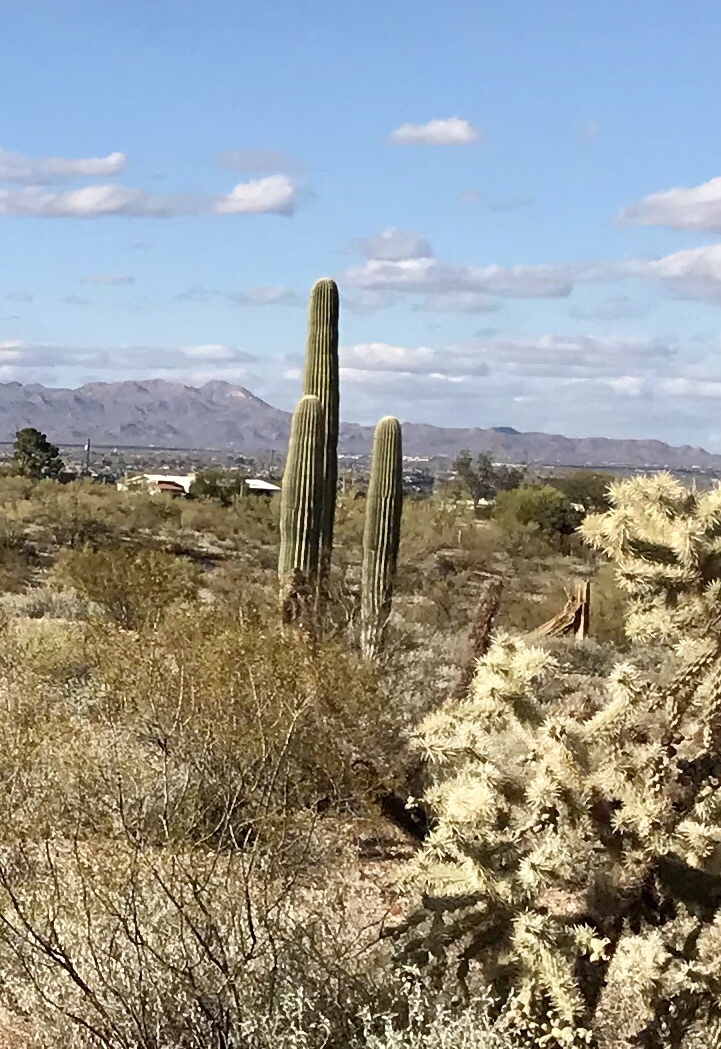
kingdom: Plantae
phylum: Tracheophyta
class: Magnoliopsida
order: Caryophyllales
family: Cactaceae
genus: Carnegiea
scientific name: Carnegiea gigantea
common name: Saguaro
